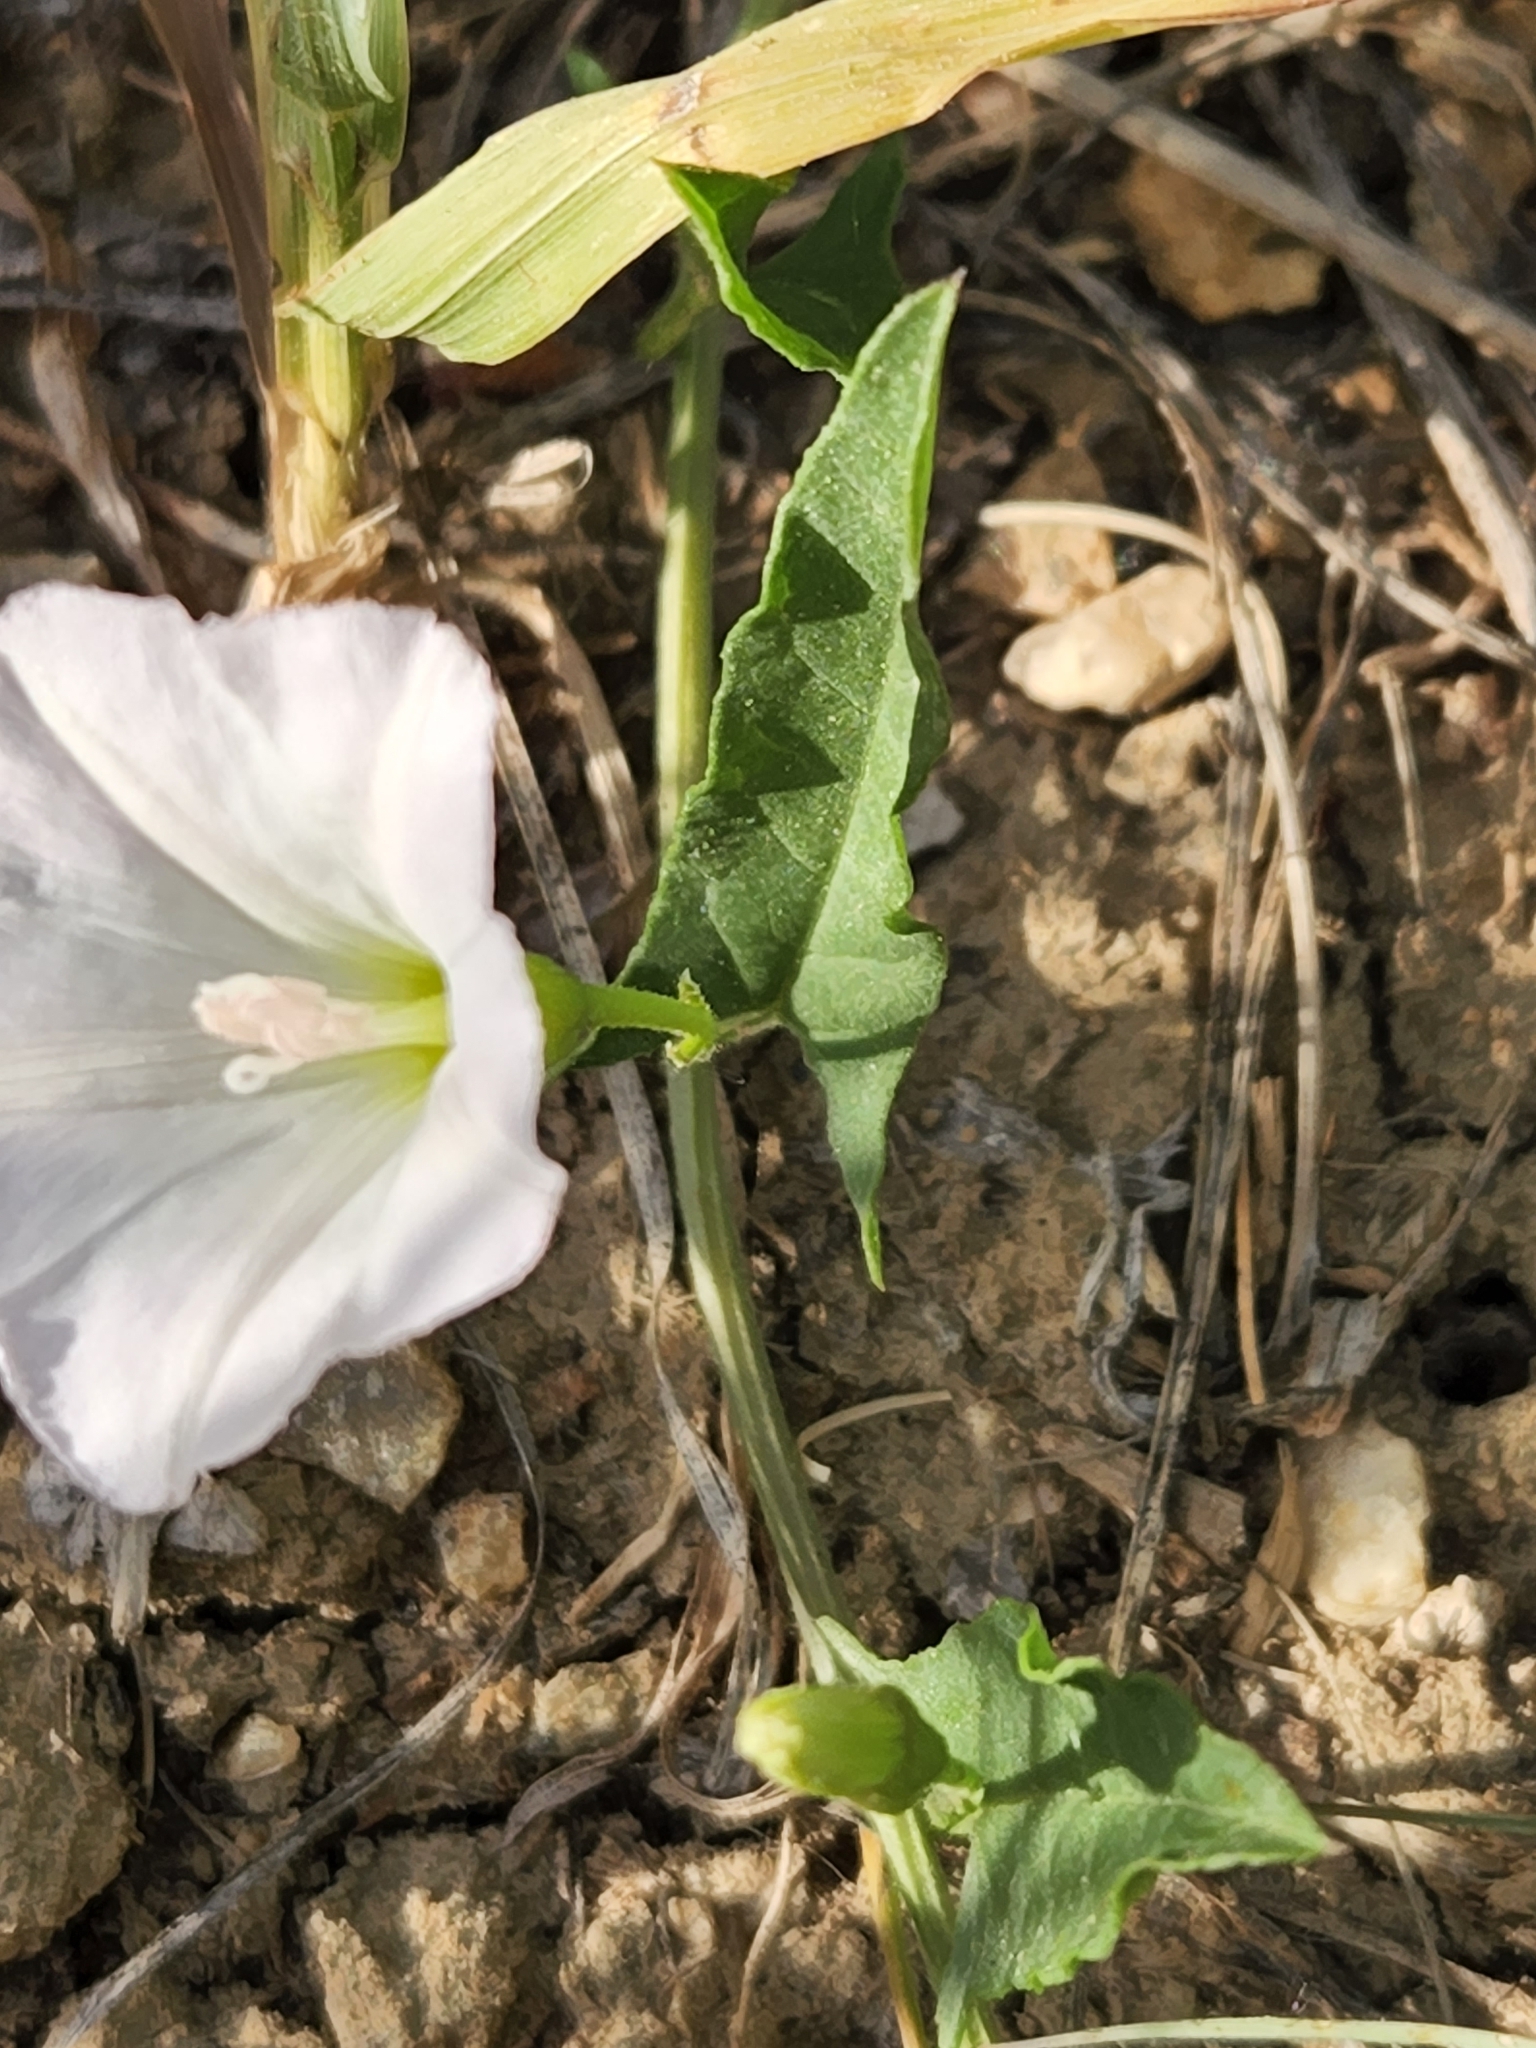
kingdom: Plantae
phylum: Tracheophyta
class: Magnoliopsida
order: Solanales
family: Convolvulaceae
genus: Convolvulus
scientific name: Convolvulus arvensis
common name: Field bindweed
